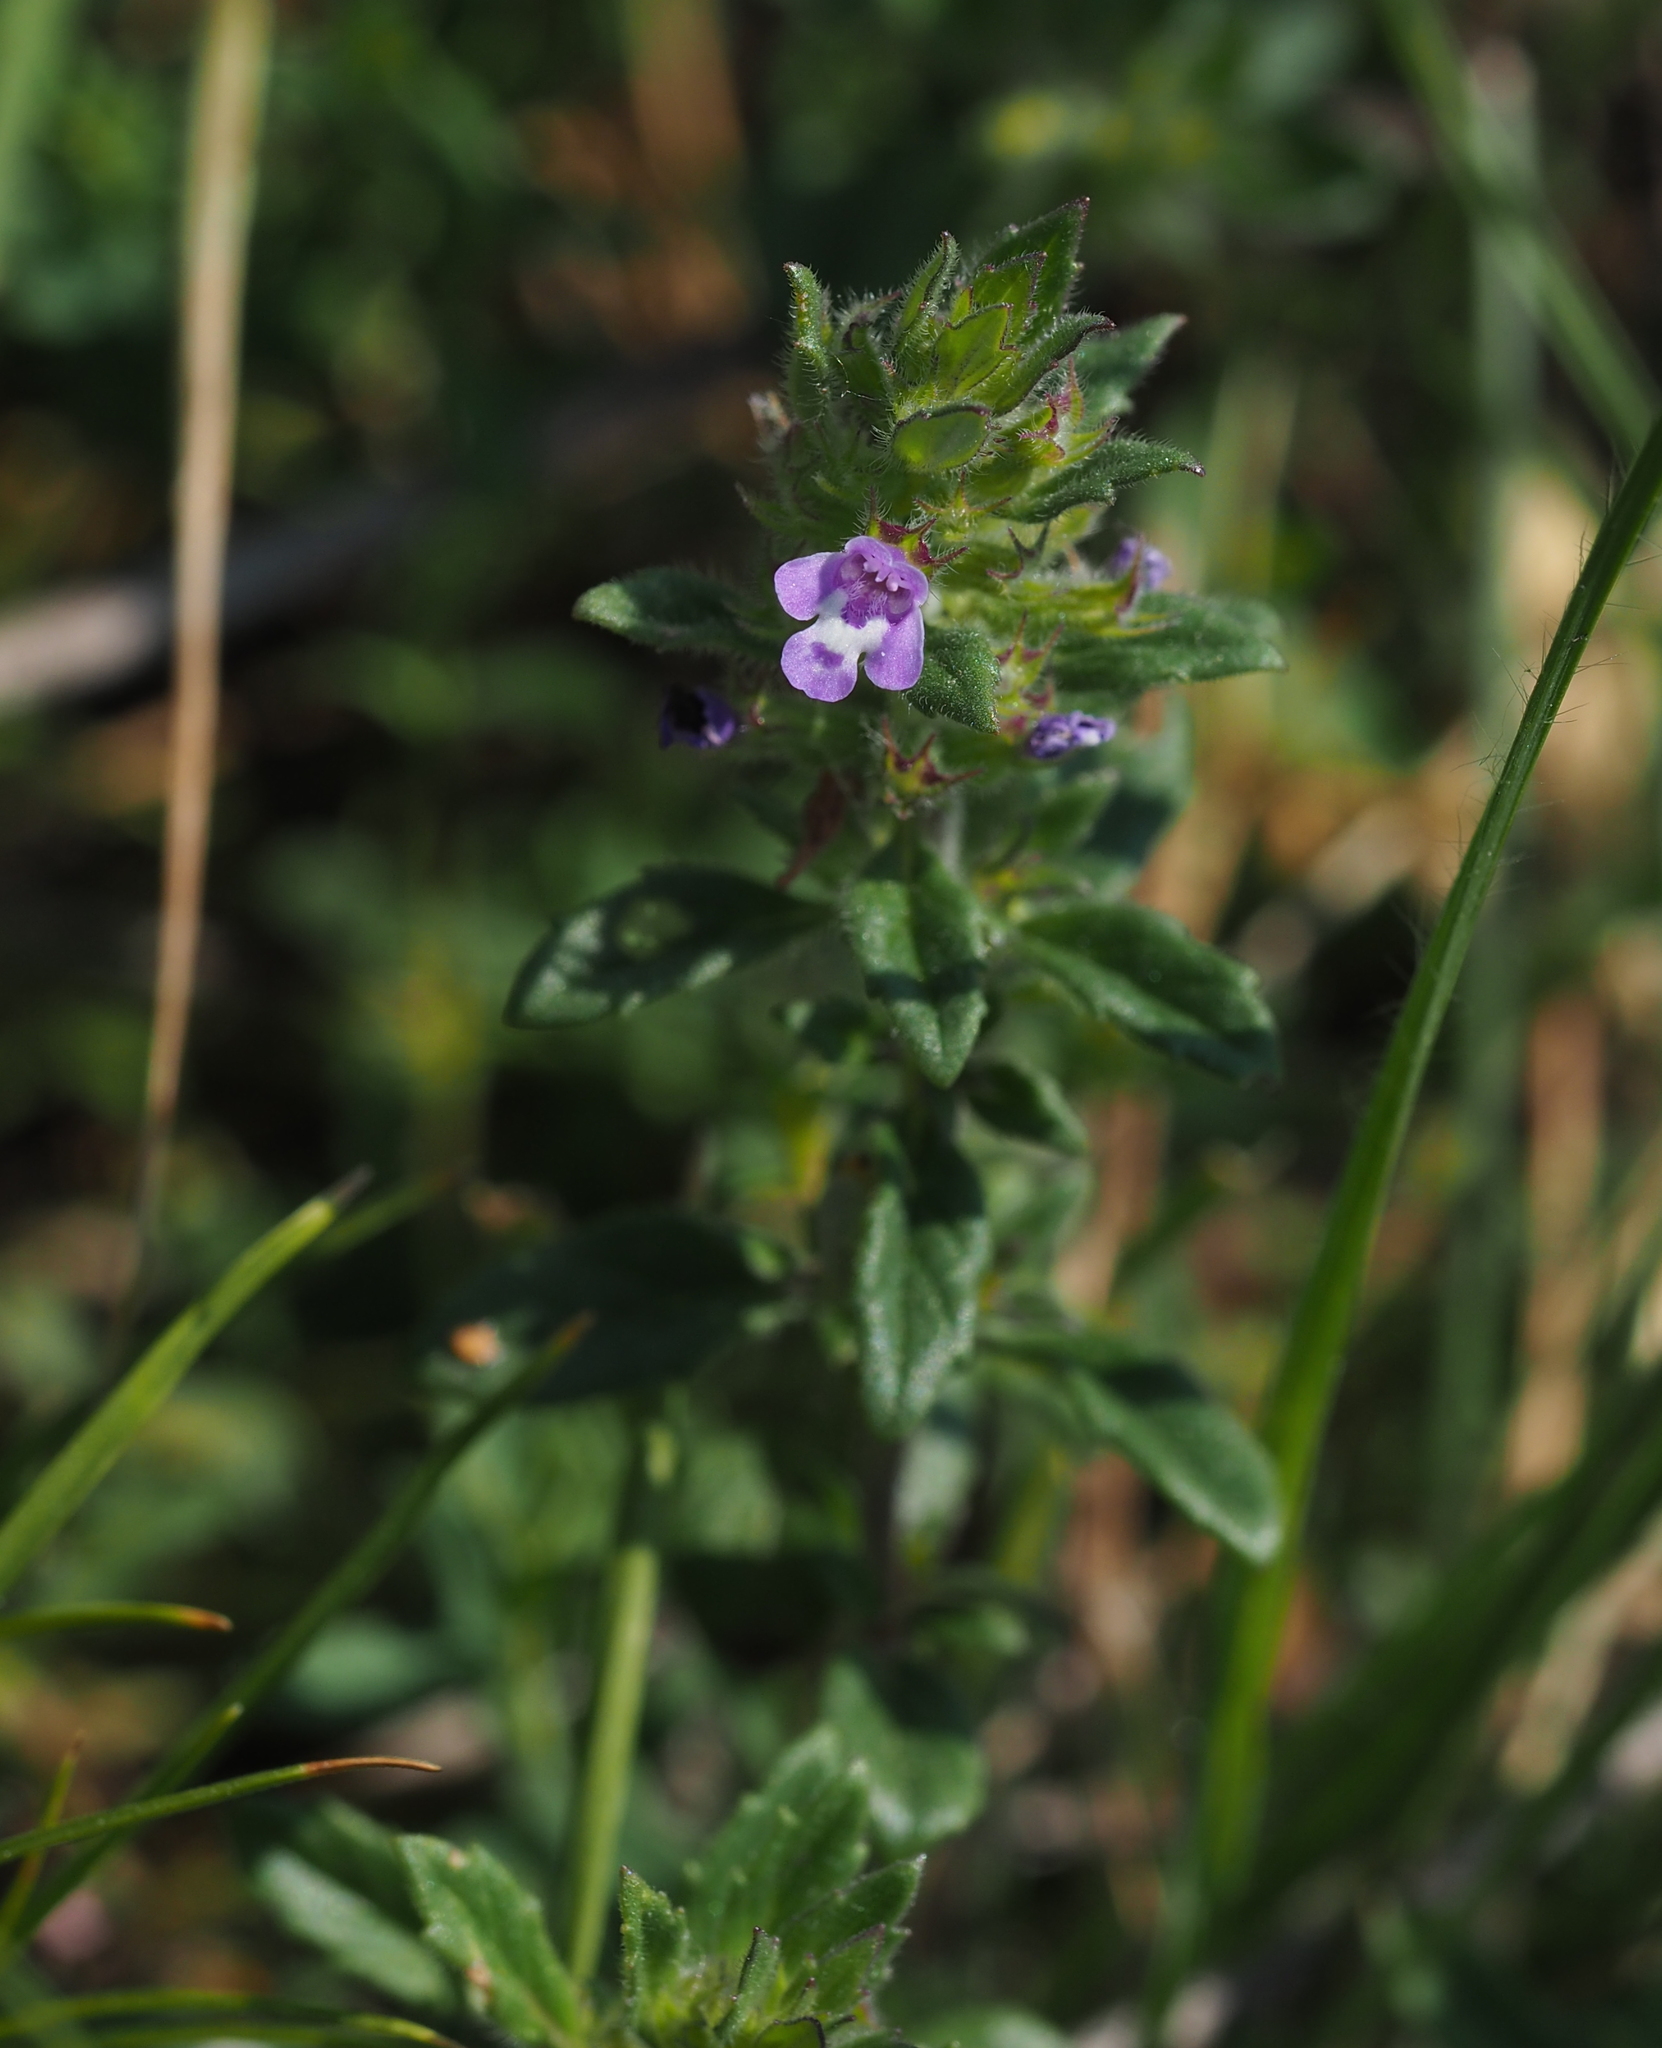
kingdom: Plantae
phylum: Tracheophyta
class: Magnoliopsida
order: Lamiales
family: Lamiaceae
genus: Clinopodium
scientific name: Clinopodium acinos
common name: Basil thyme
